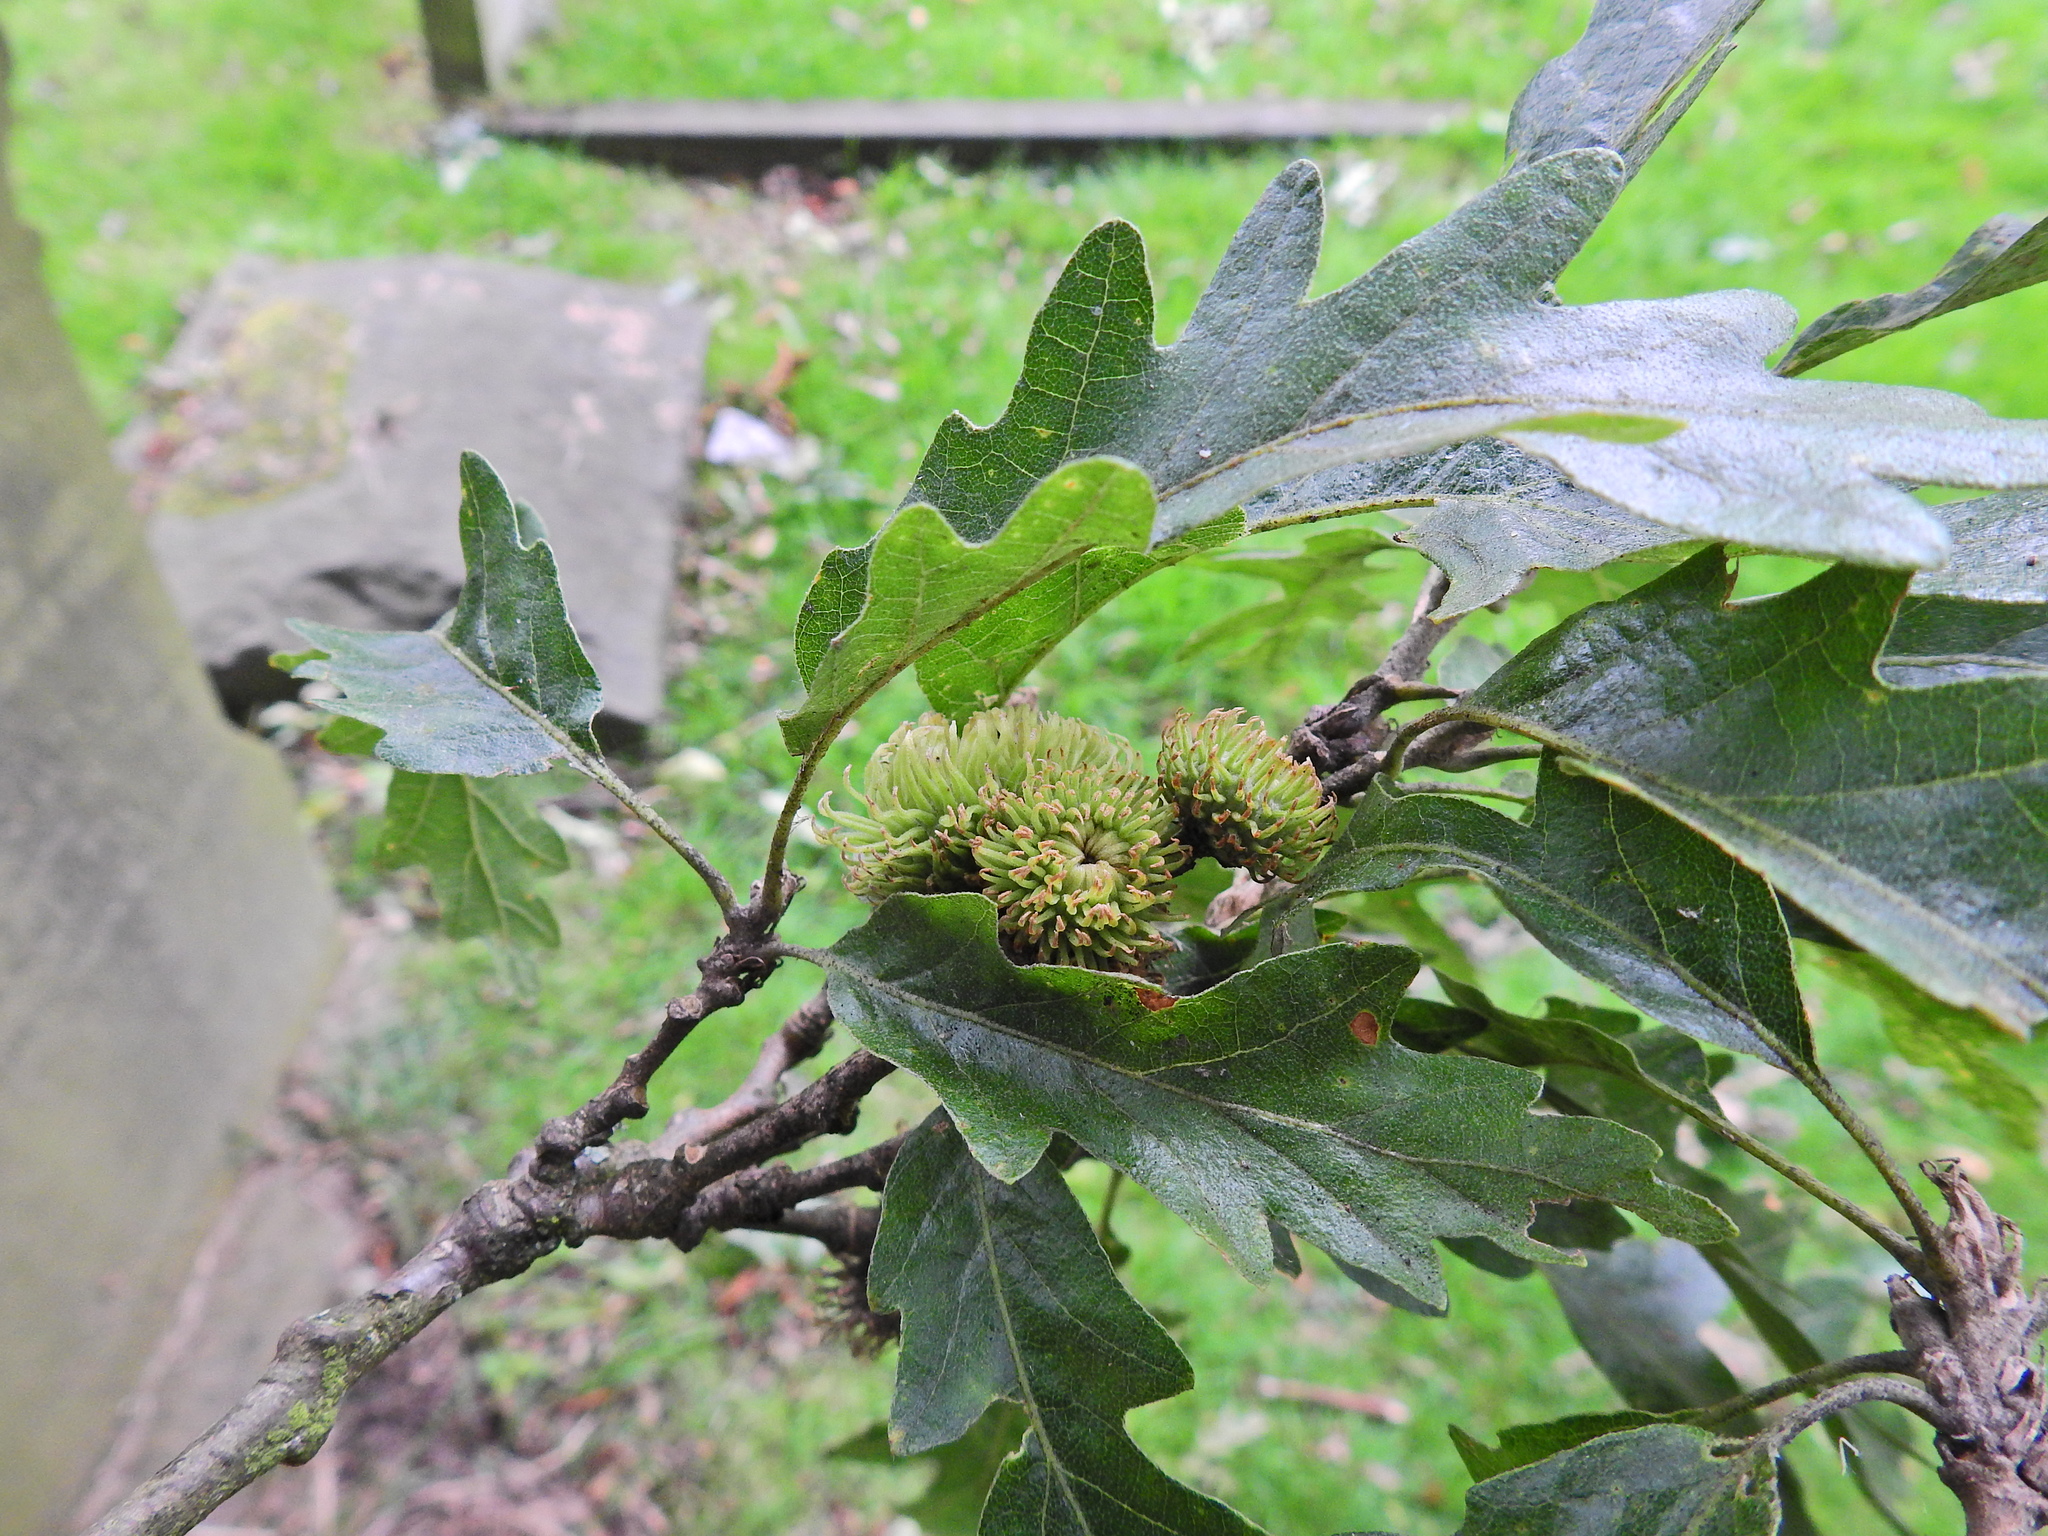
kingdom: Plantae
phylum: Tracheophyta
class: Magnoliopsida
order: Fagales
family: Fagaceae
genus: Quercus
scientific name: Quercus cerris
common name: Turkey oak
